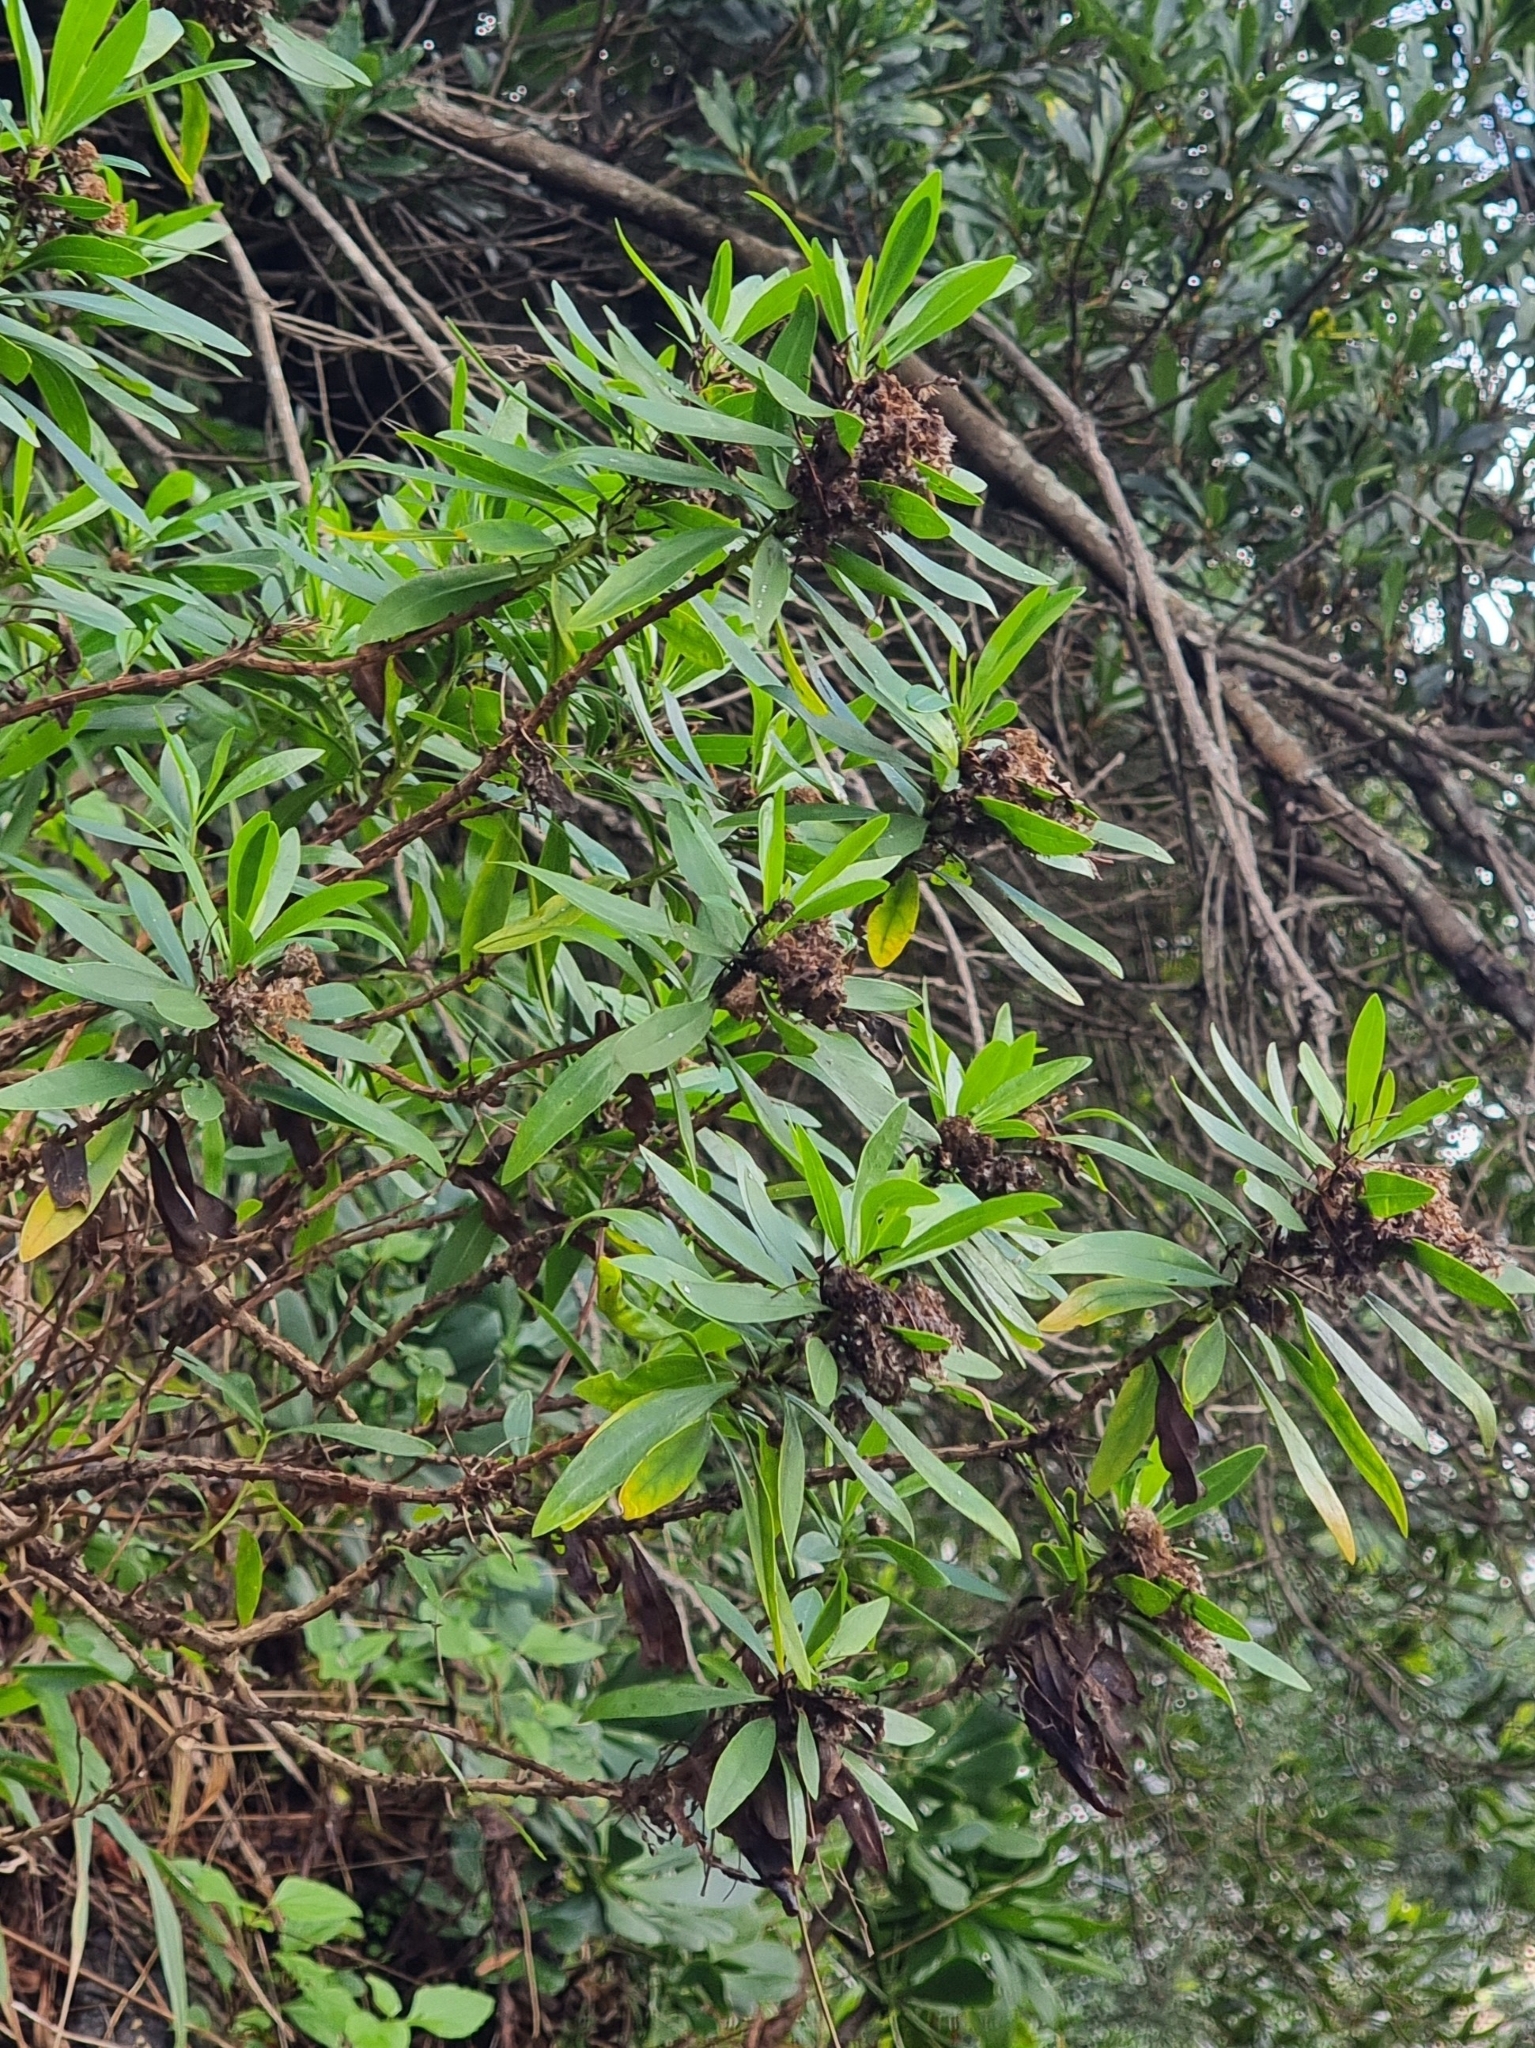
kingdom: Plantae
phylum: Tracheophyta
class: Magnoliopsida
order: Lamiales
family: Plantaginaceae
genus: Globularia
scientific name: Globularia salicina
